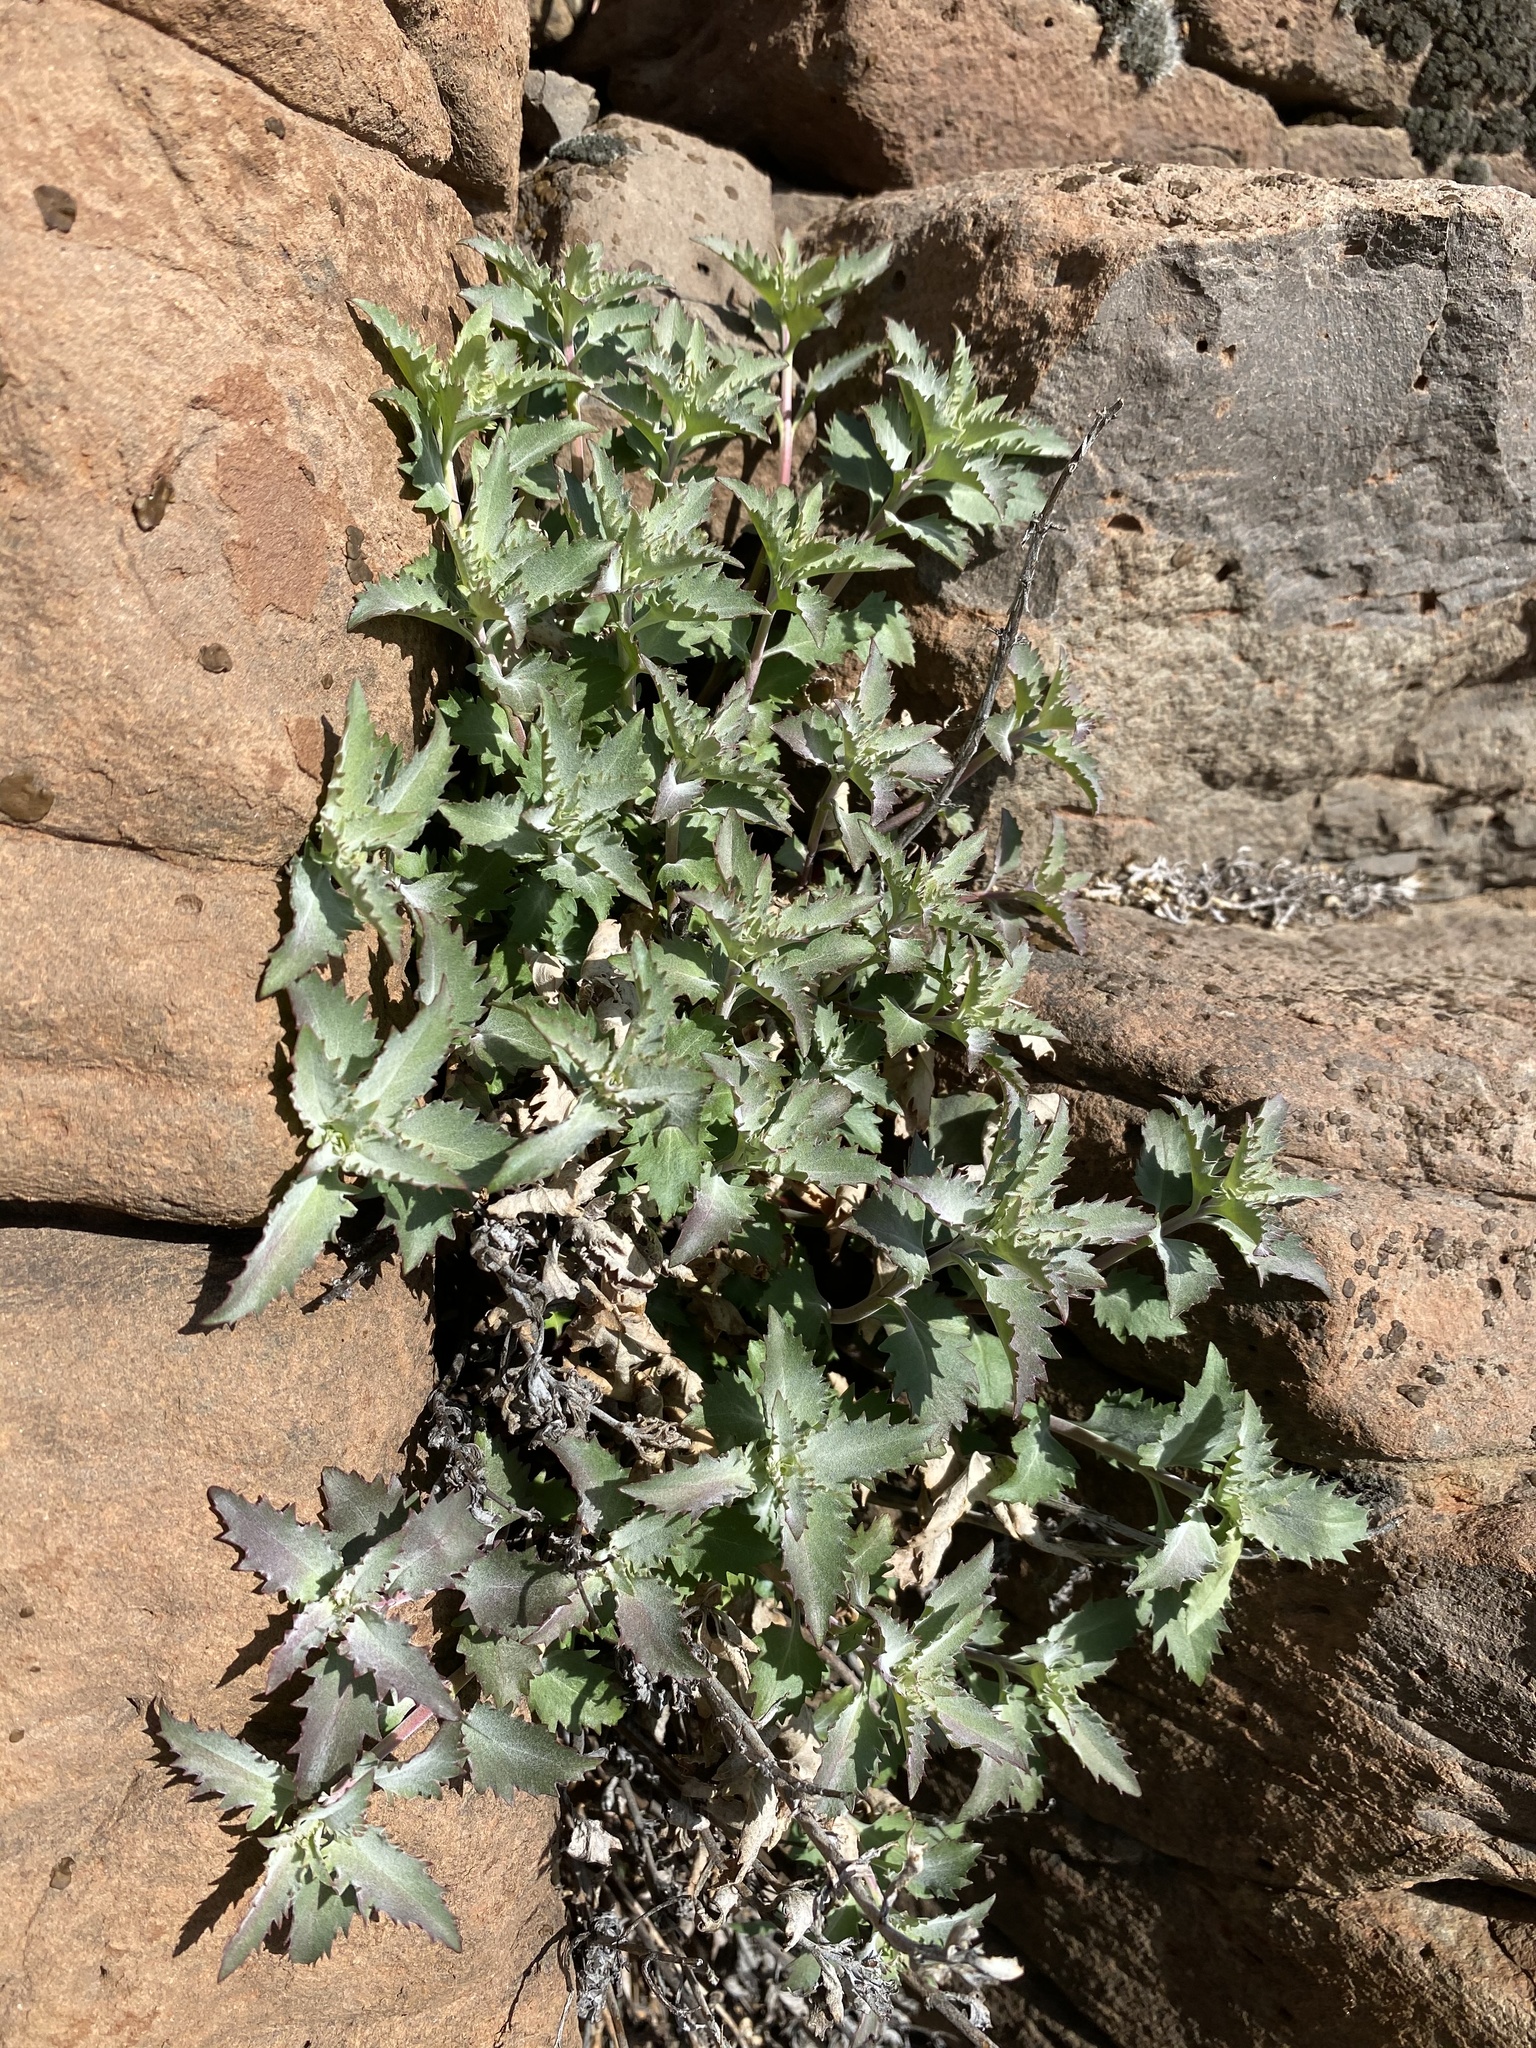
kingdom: Plantae
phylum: Tracheophyta
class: Magnoliopsida
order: Lamiales
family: Plantaginaceae
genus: Penstemon
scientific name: Penstemon richardsonii
